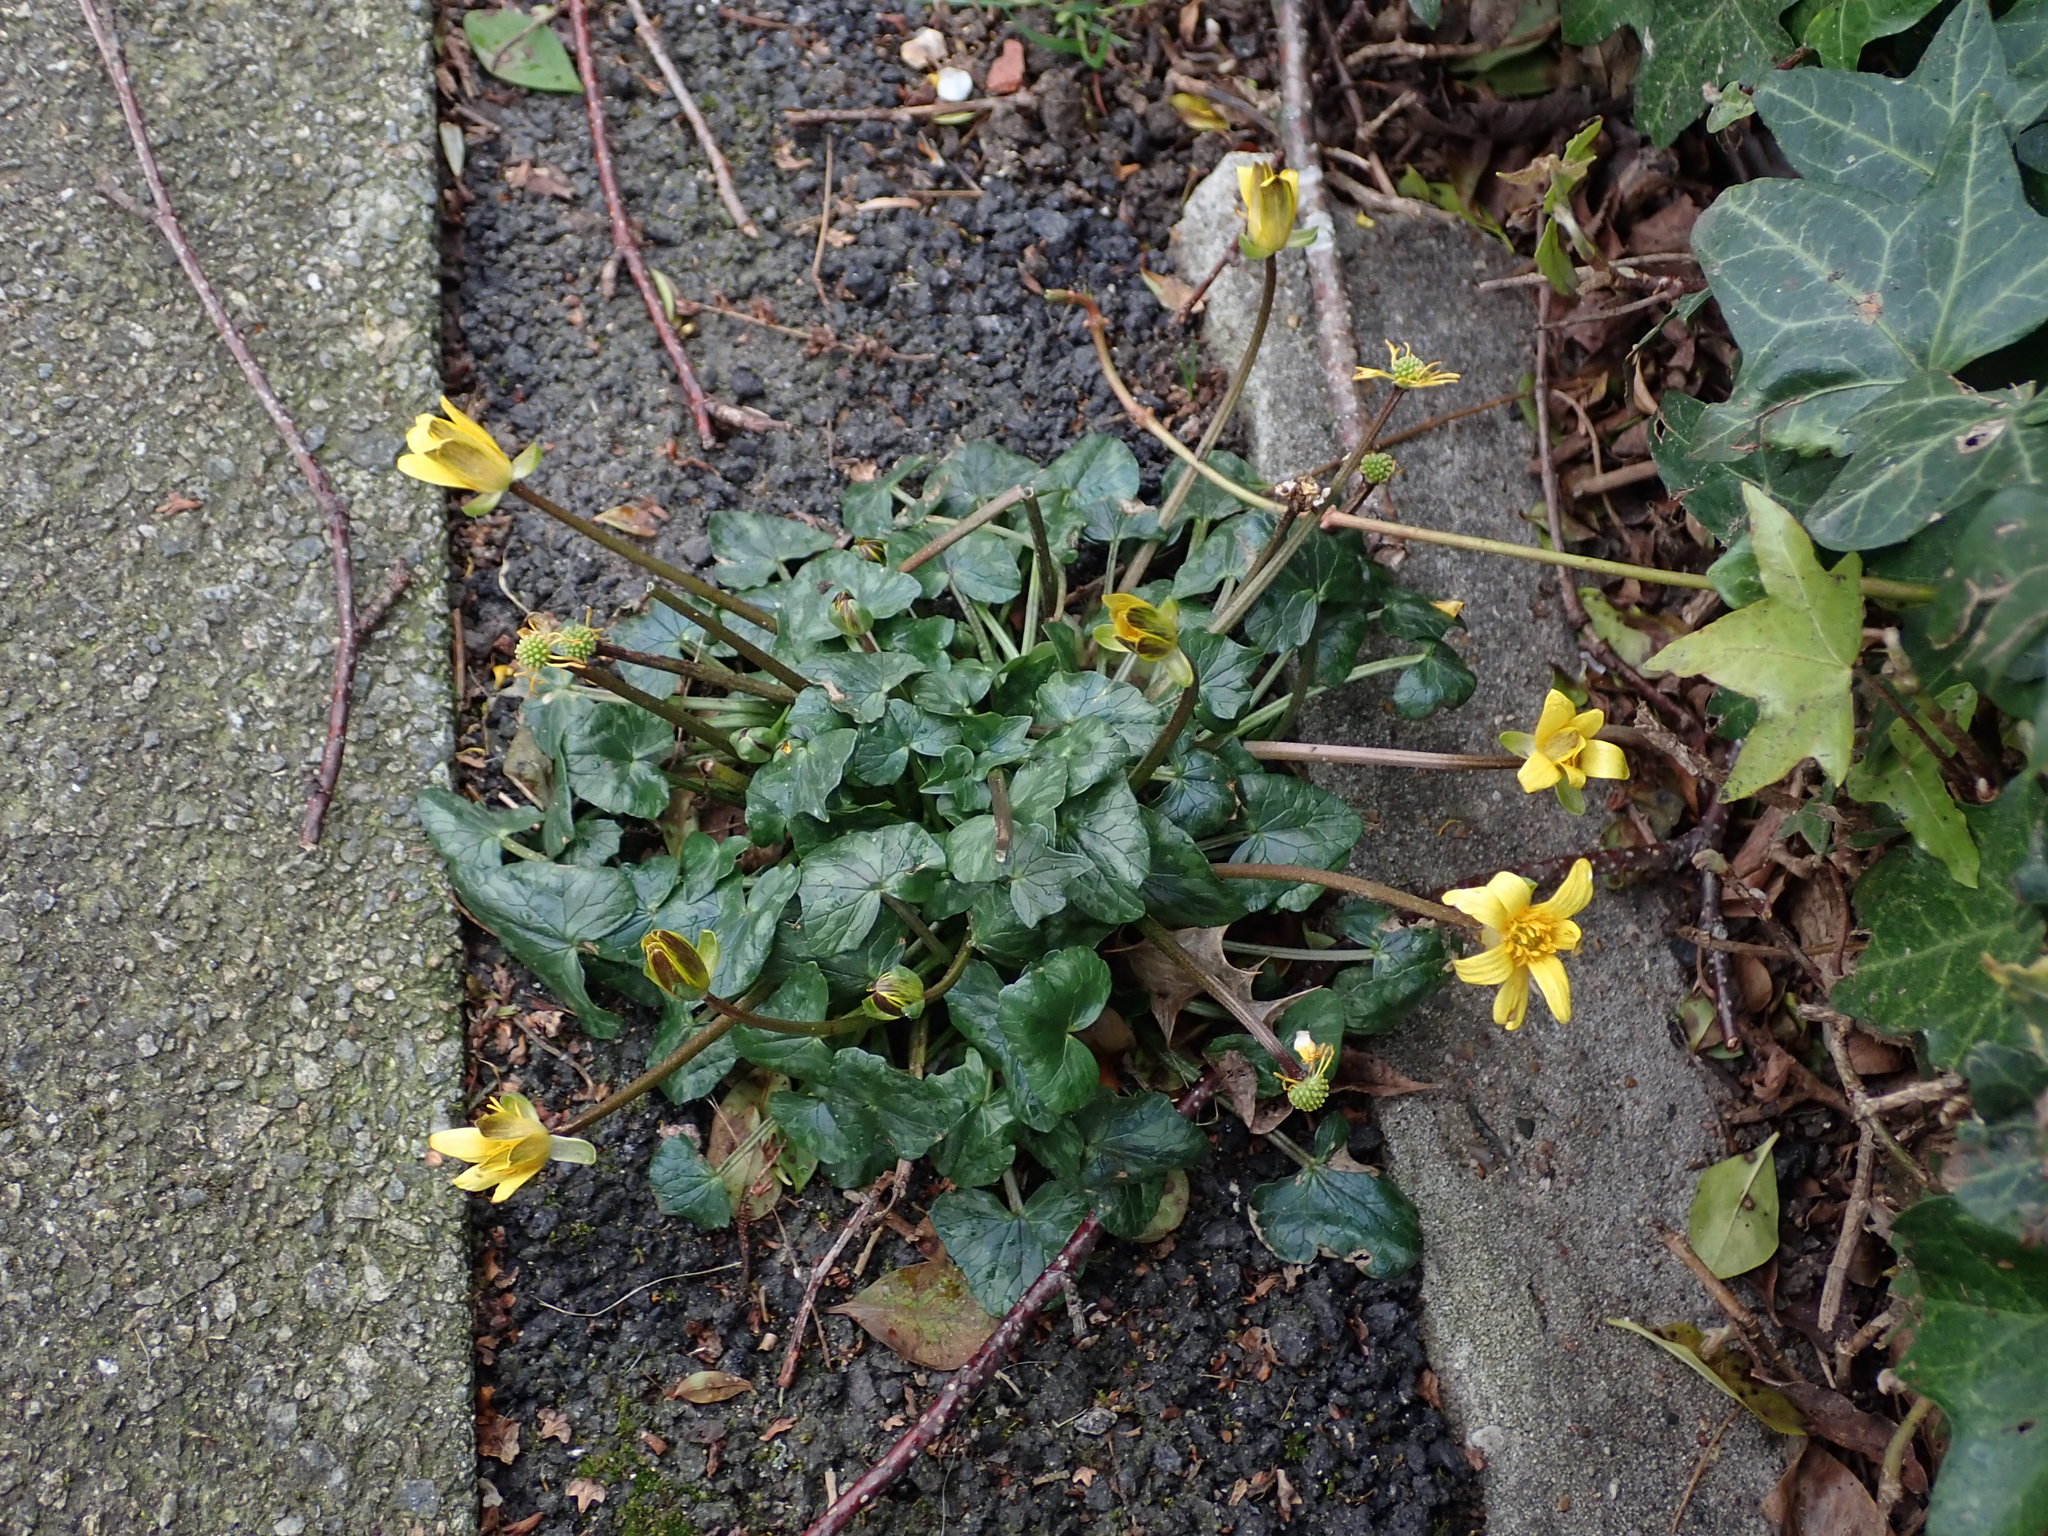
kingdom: Plantae
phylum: Tracheophyta
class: Magnoliopsida
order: Ranunculales
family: Ranunculaceae
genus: Ficaria
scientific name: Ficaria ambigua
